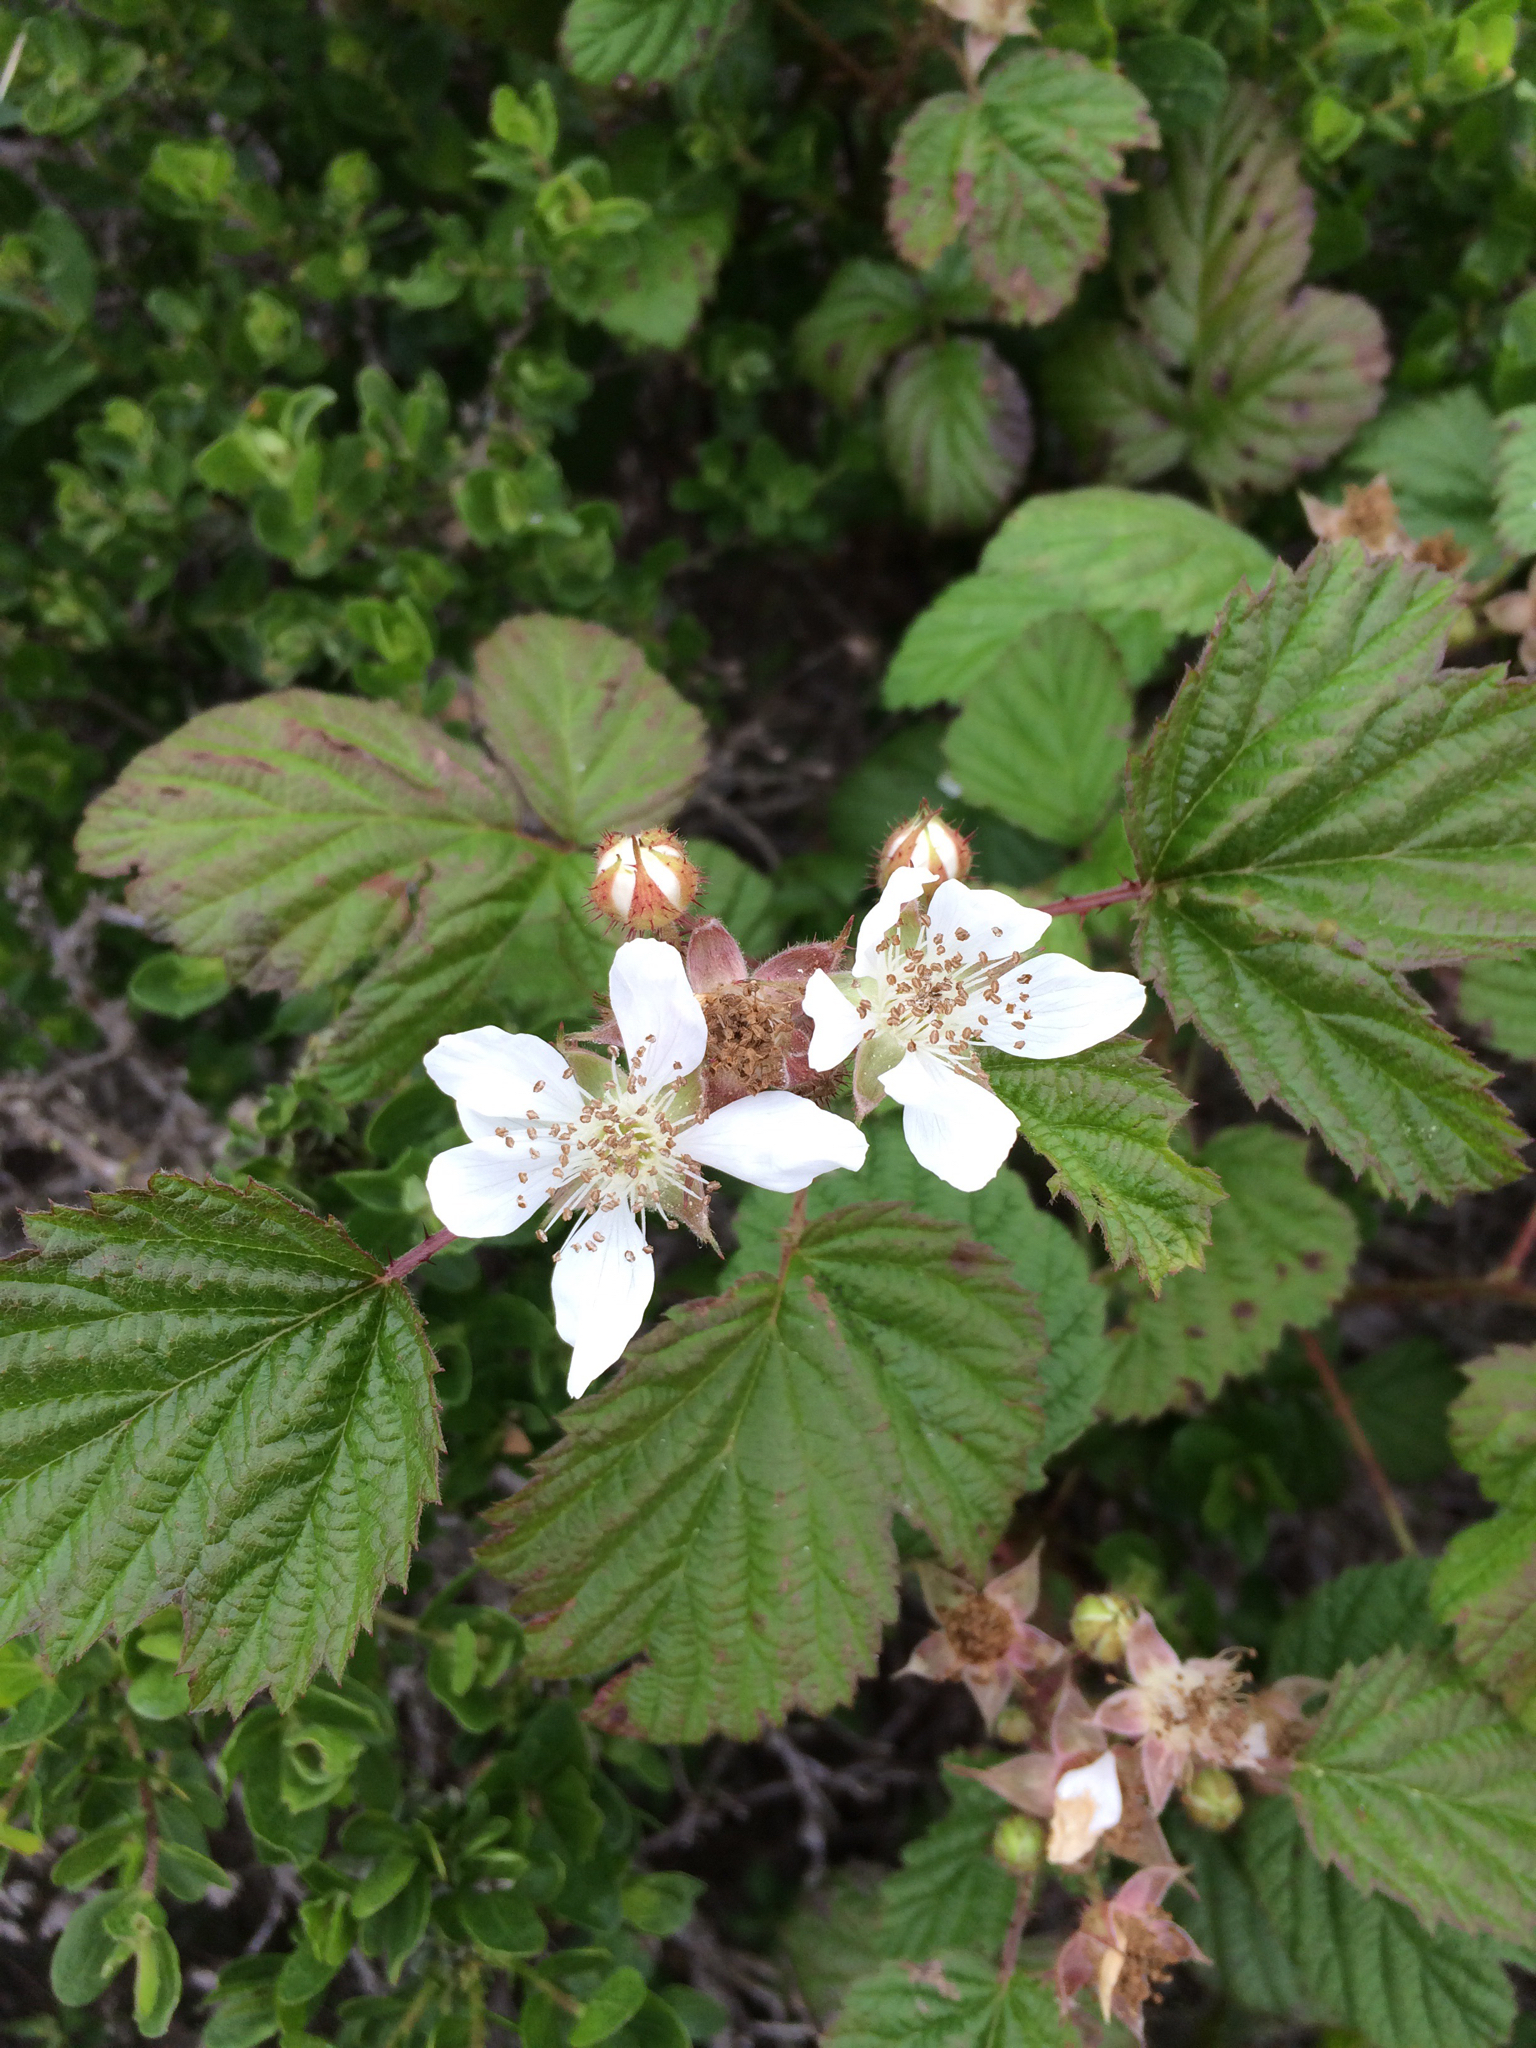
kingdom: Plantae
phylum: Tracheophyta
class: Magnoliopsida
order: Rosales
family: Rosaceae
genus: Rubus
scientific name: Rubus ursinus
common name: Pacific blackberry
